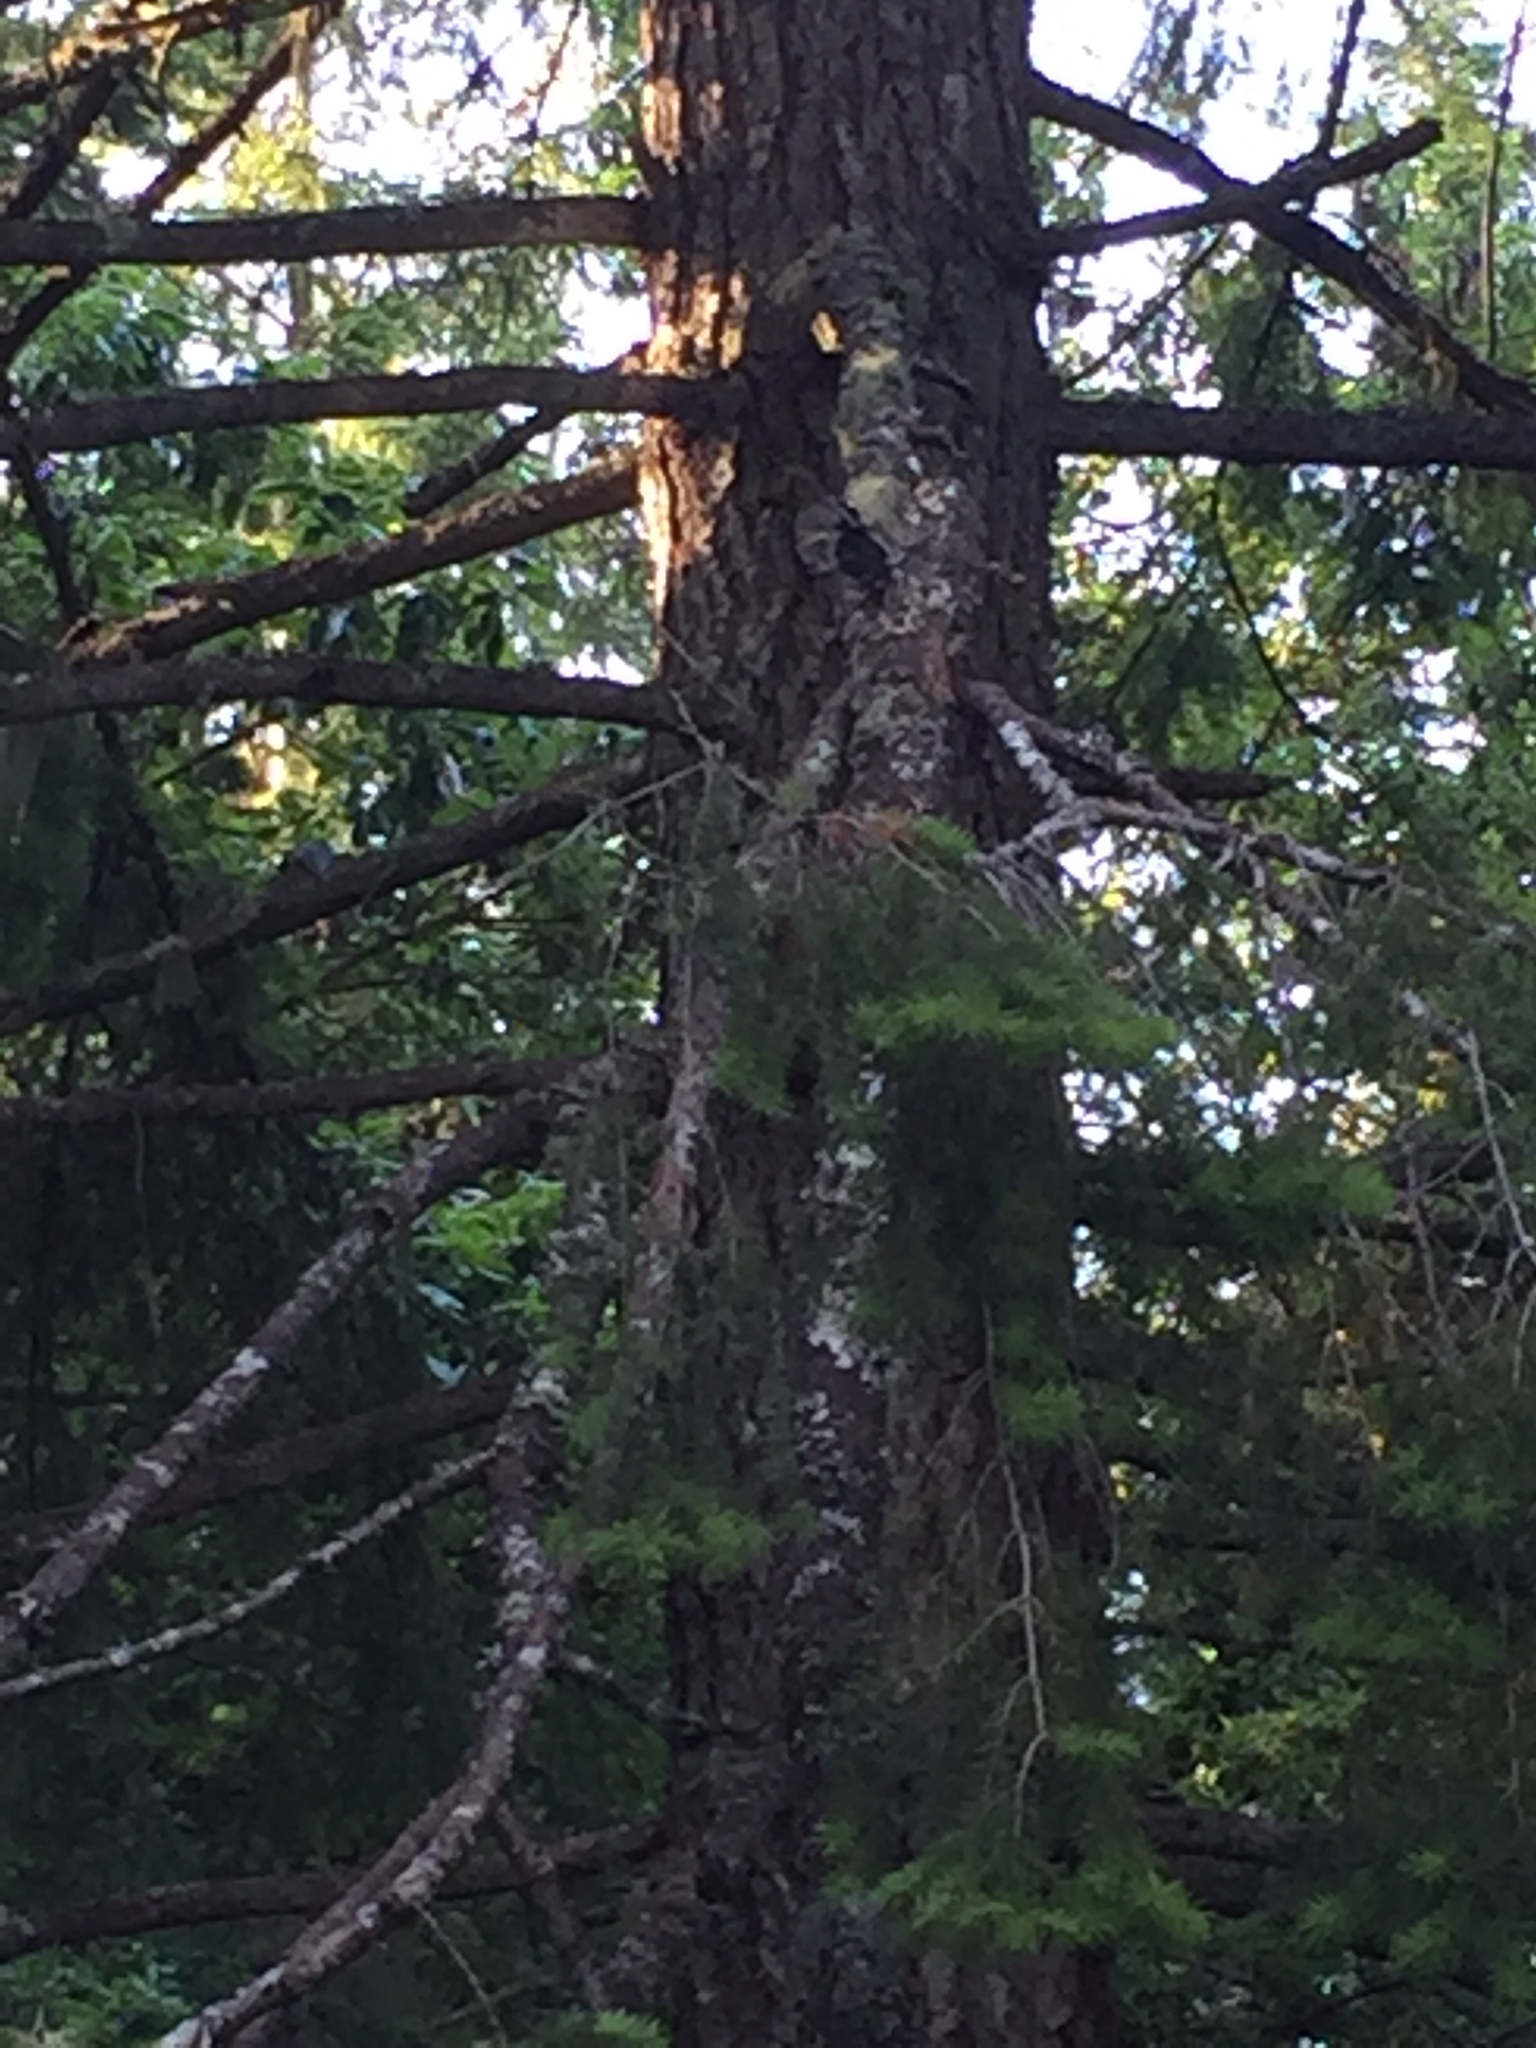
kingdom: Animalia
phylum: Chordata
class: Aves
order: Piciformes
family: Picidae
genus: Dryobates
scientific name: Dryobates
